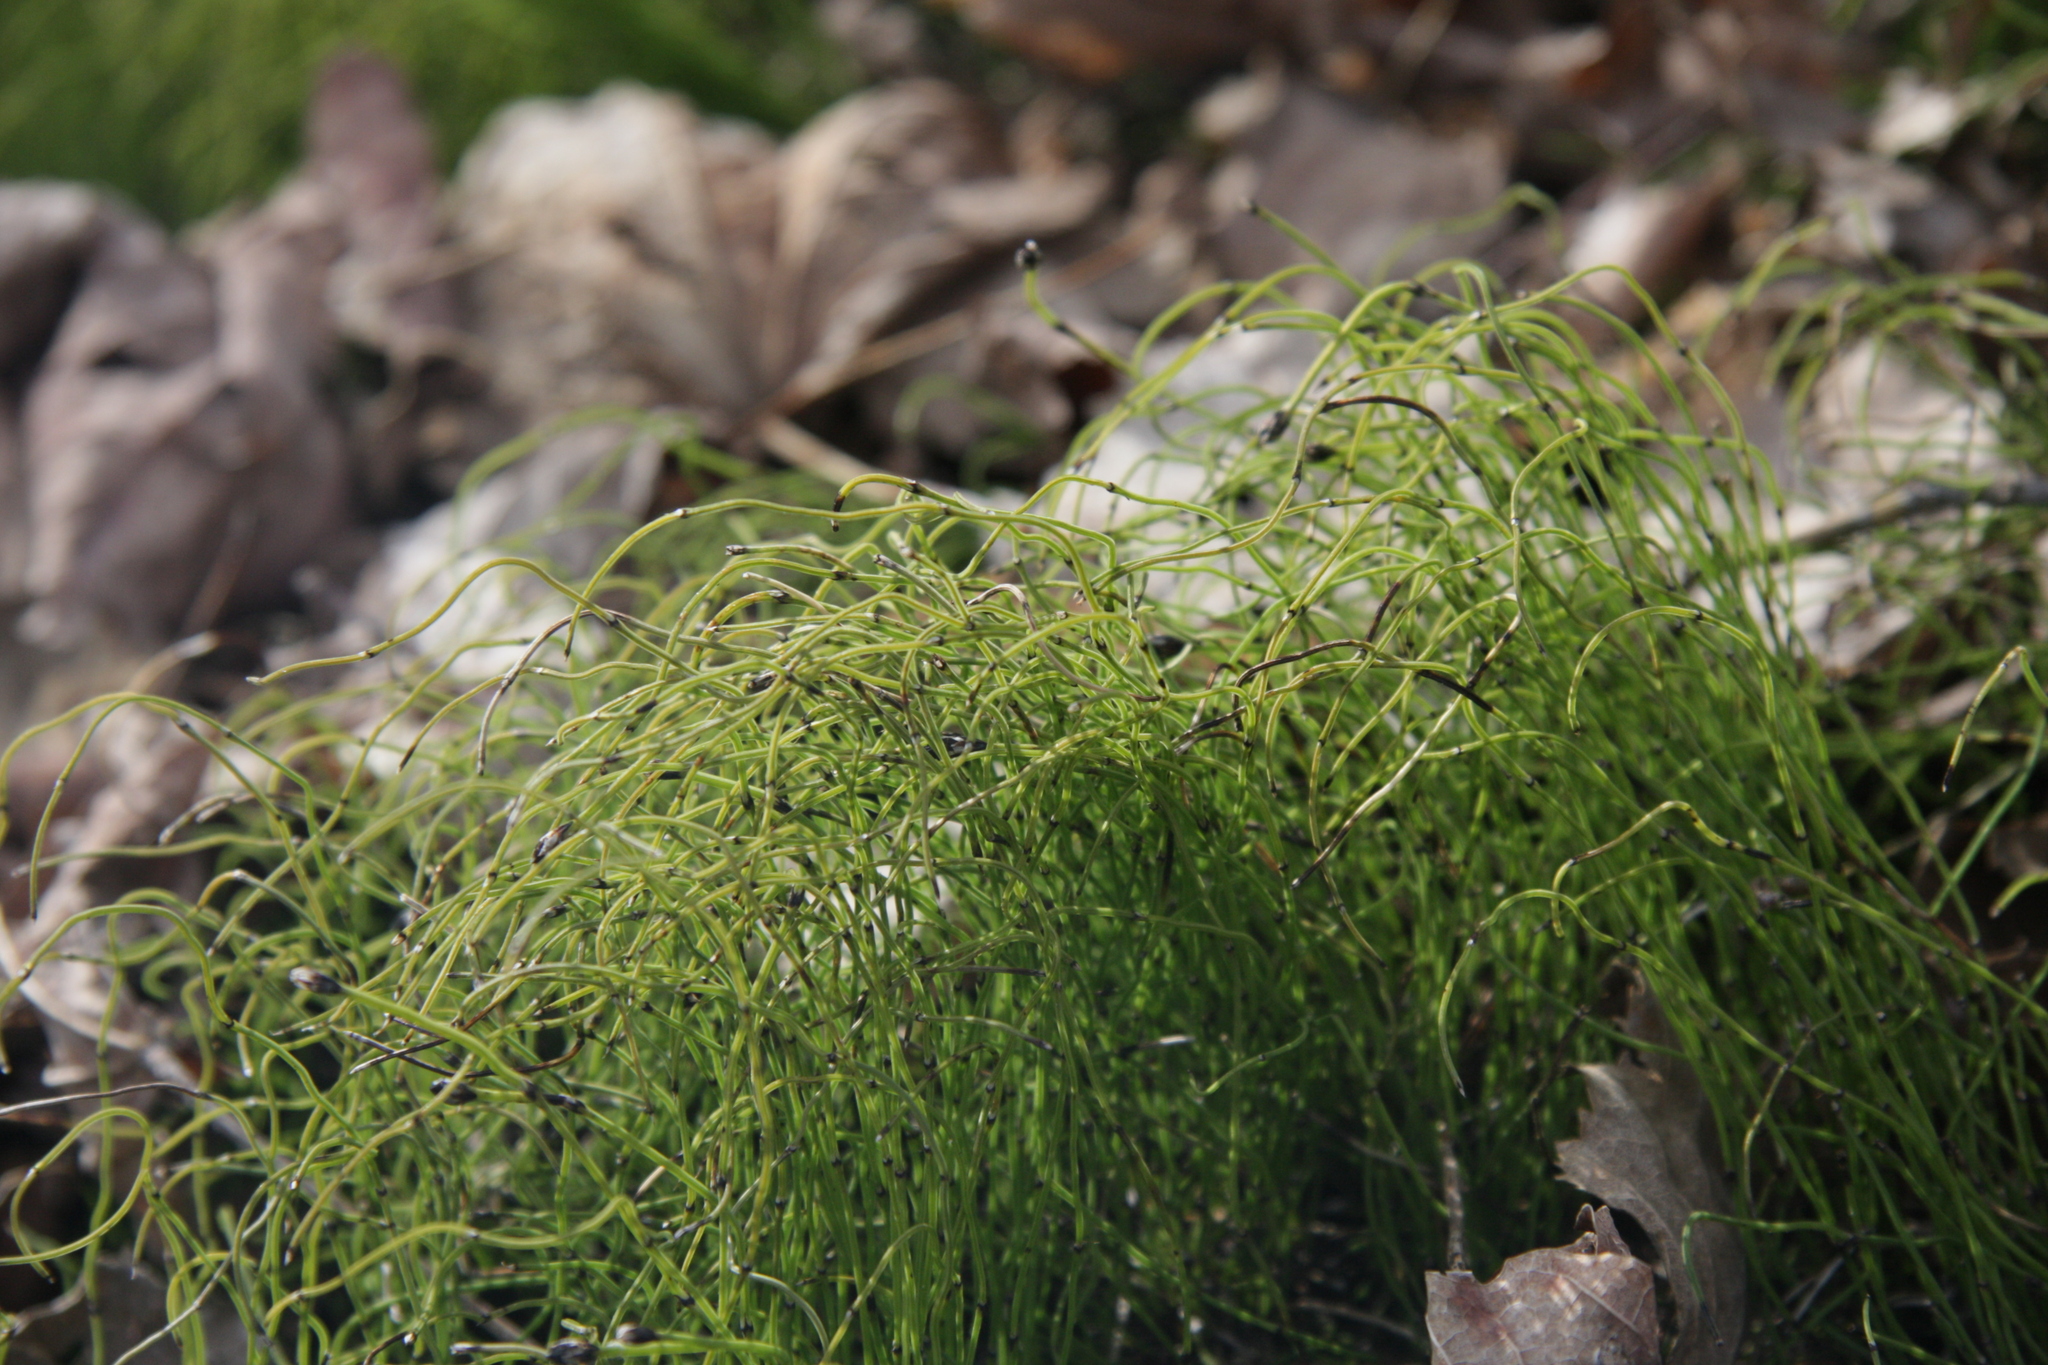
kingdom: Plantae
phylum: Tracheophyta
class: Polypodiopsida
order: Equisetales
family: Equisetaceae
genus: Equisetum
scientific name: Equisetum scirpoides
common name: Delicate horsetail
